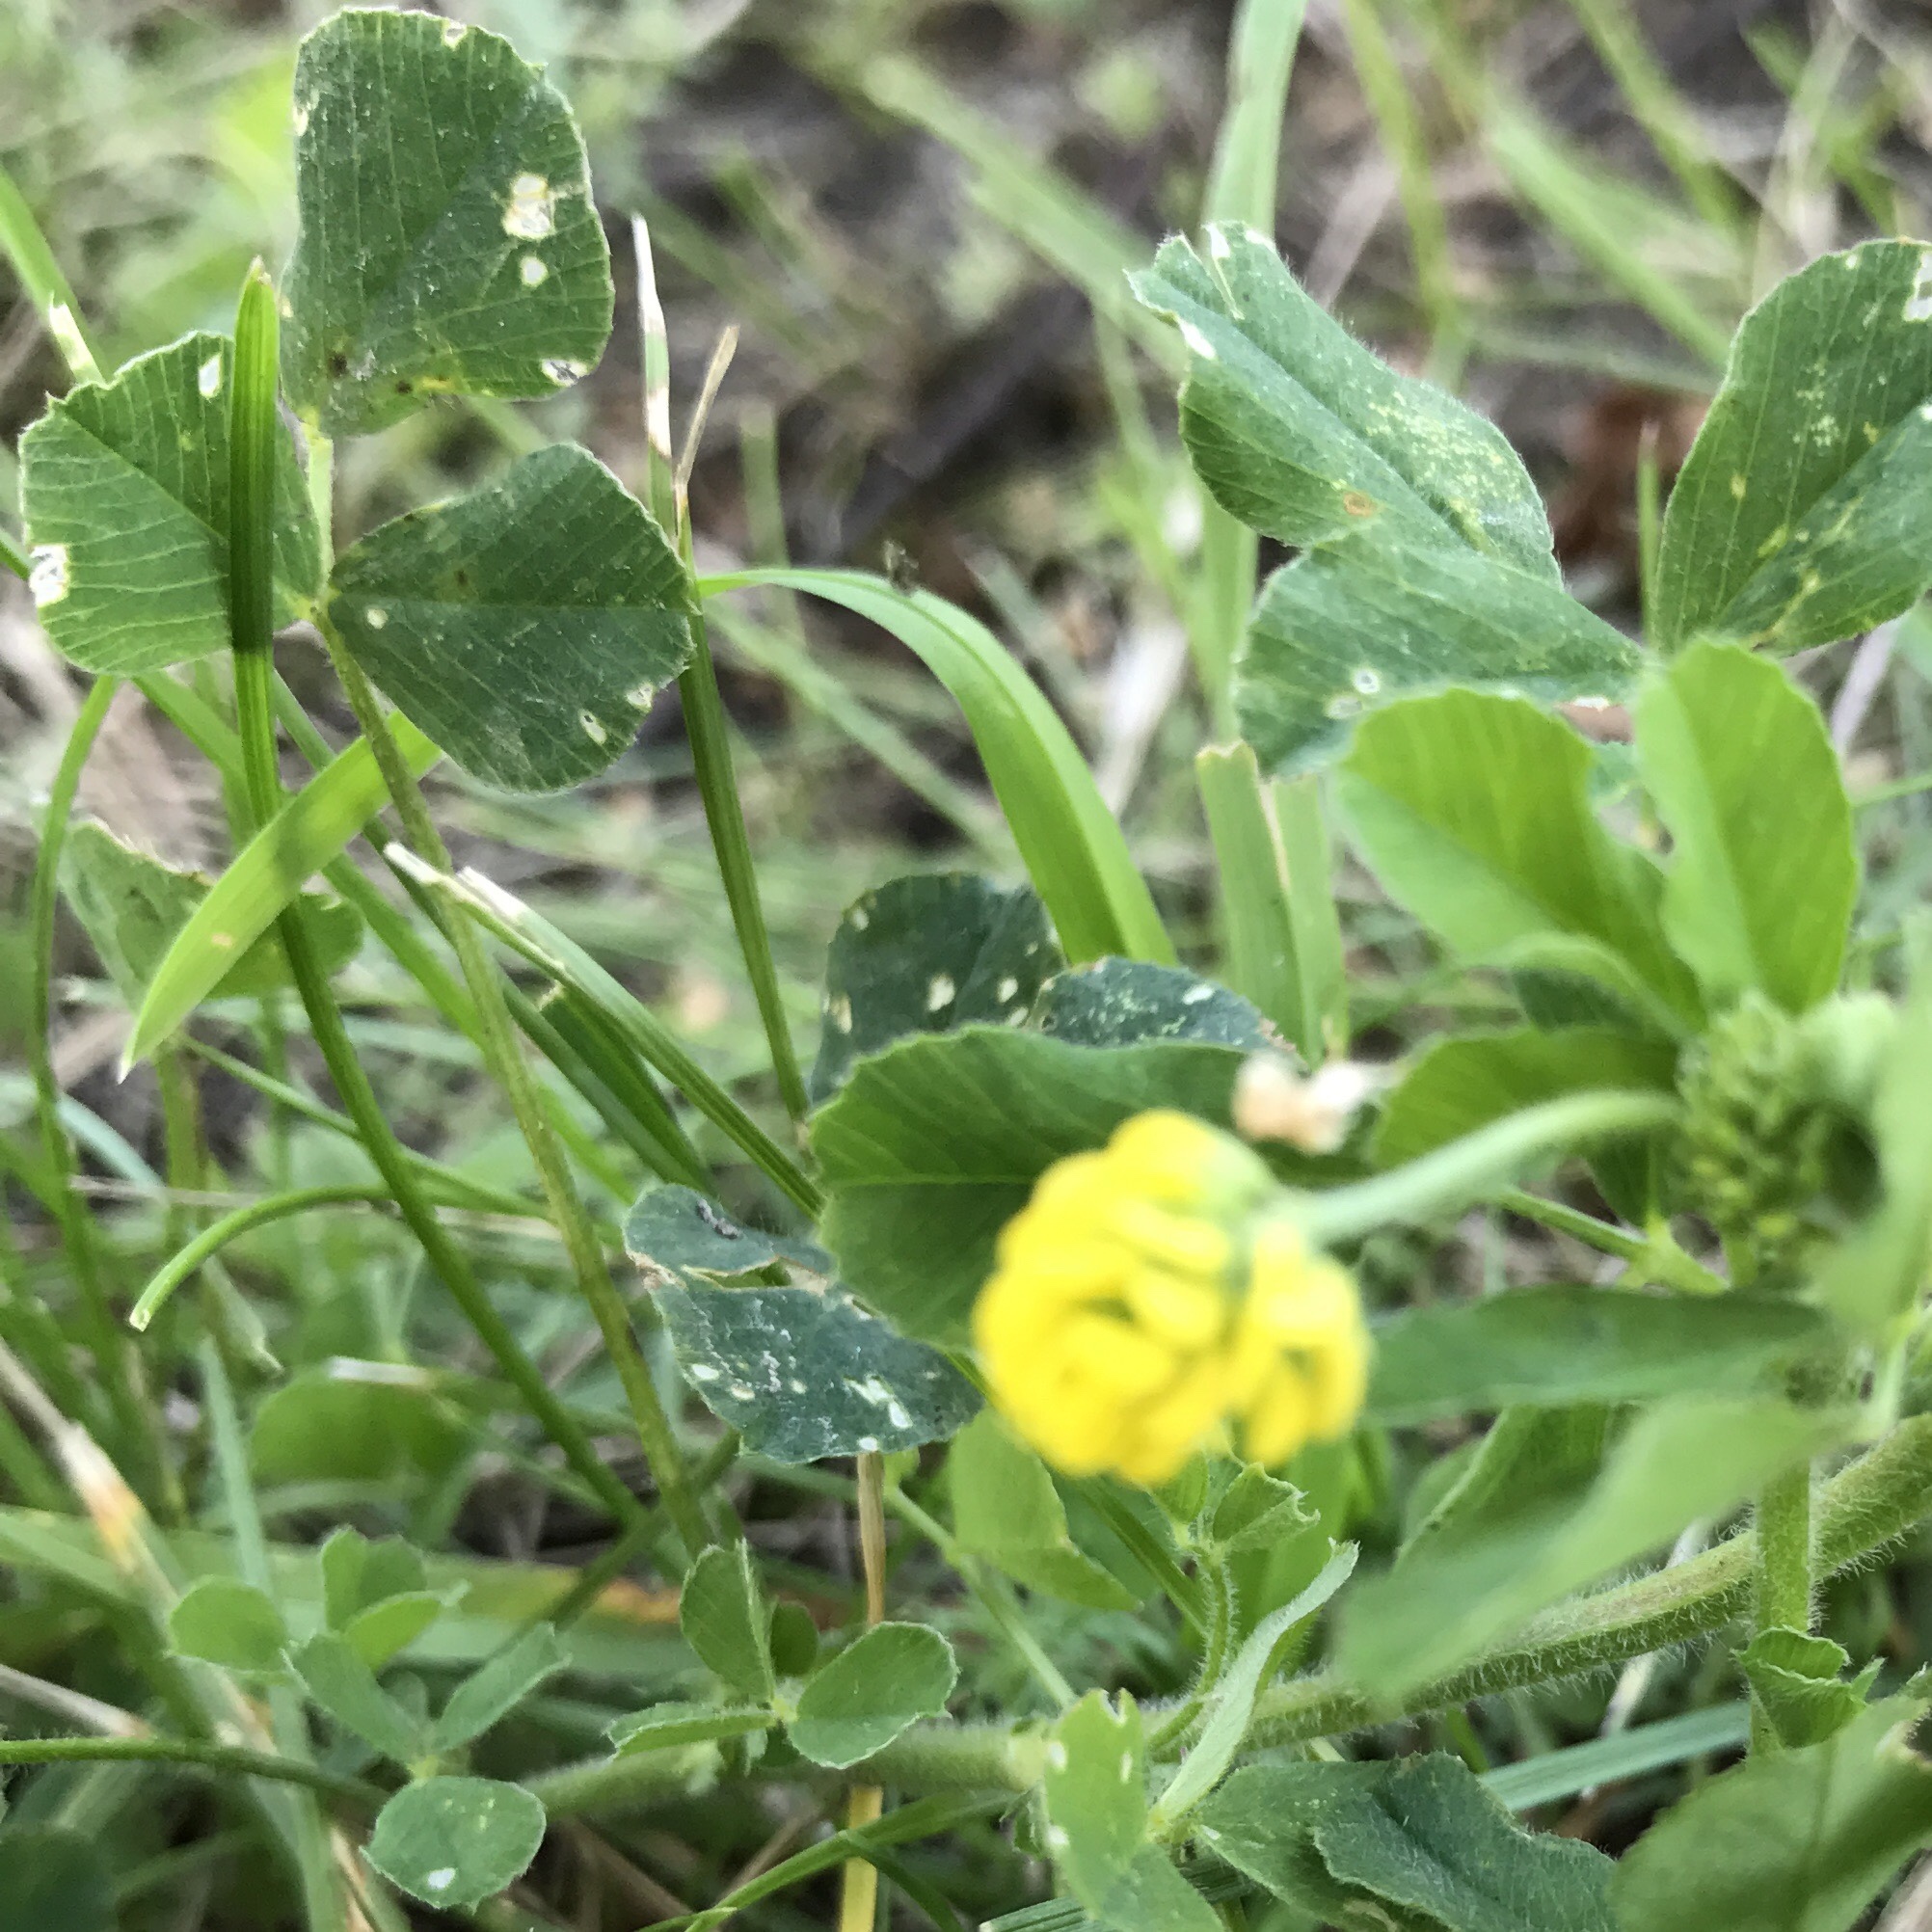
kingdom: Plantae
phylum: Tracheophyta
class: Magnoliopsida
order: Fabales
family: Fabaceae
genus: Medicago
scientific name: Medicago lupulina
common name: Black medick
